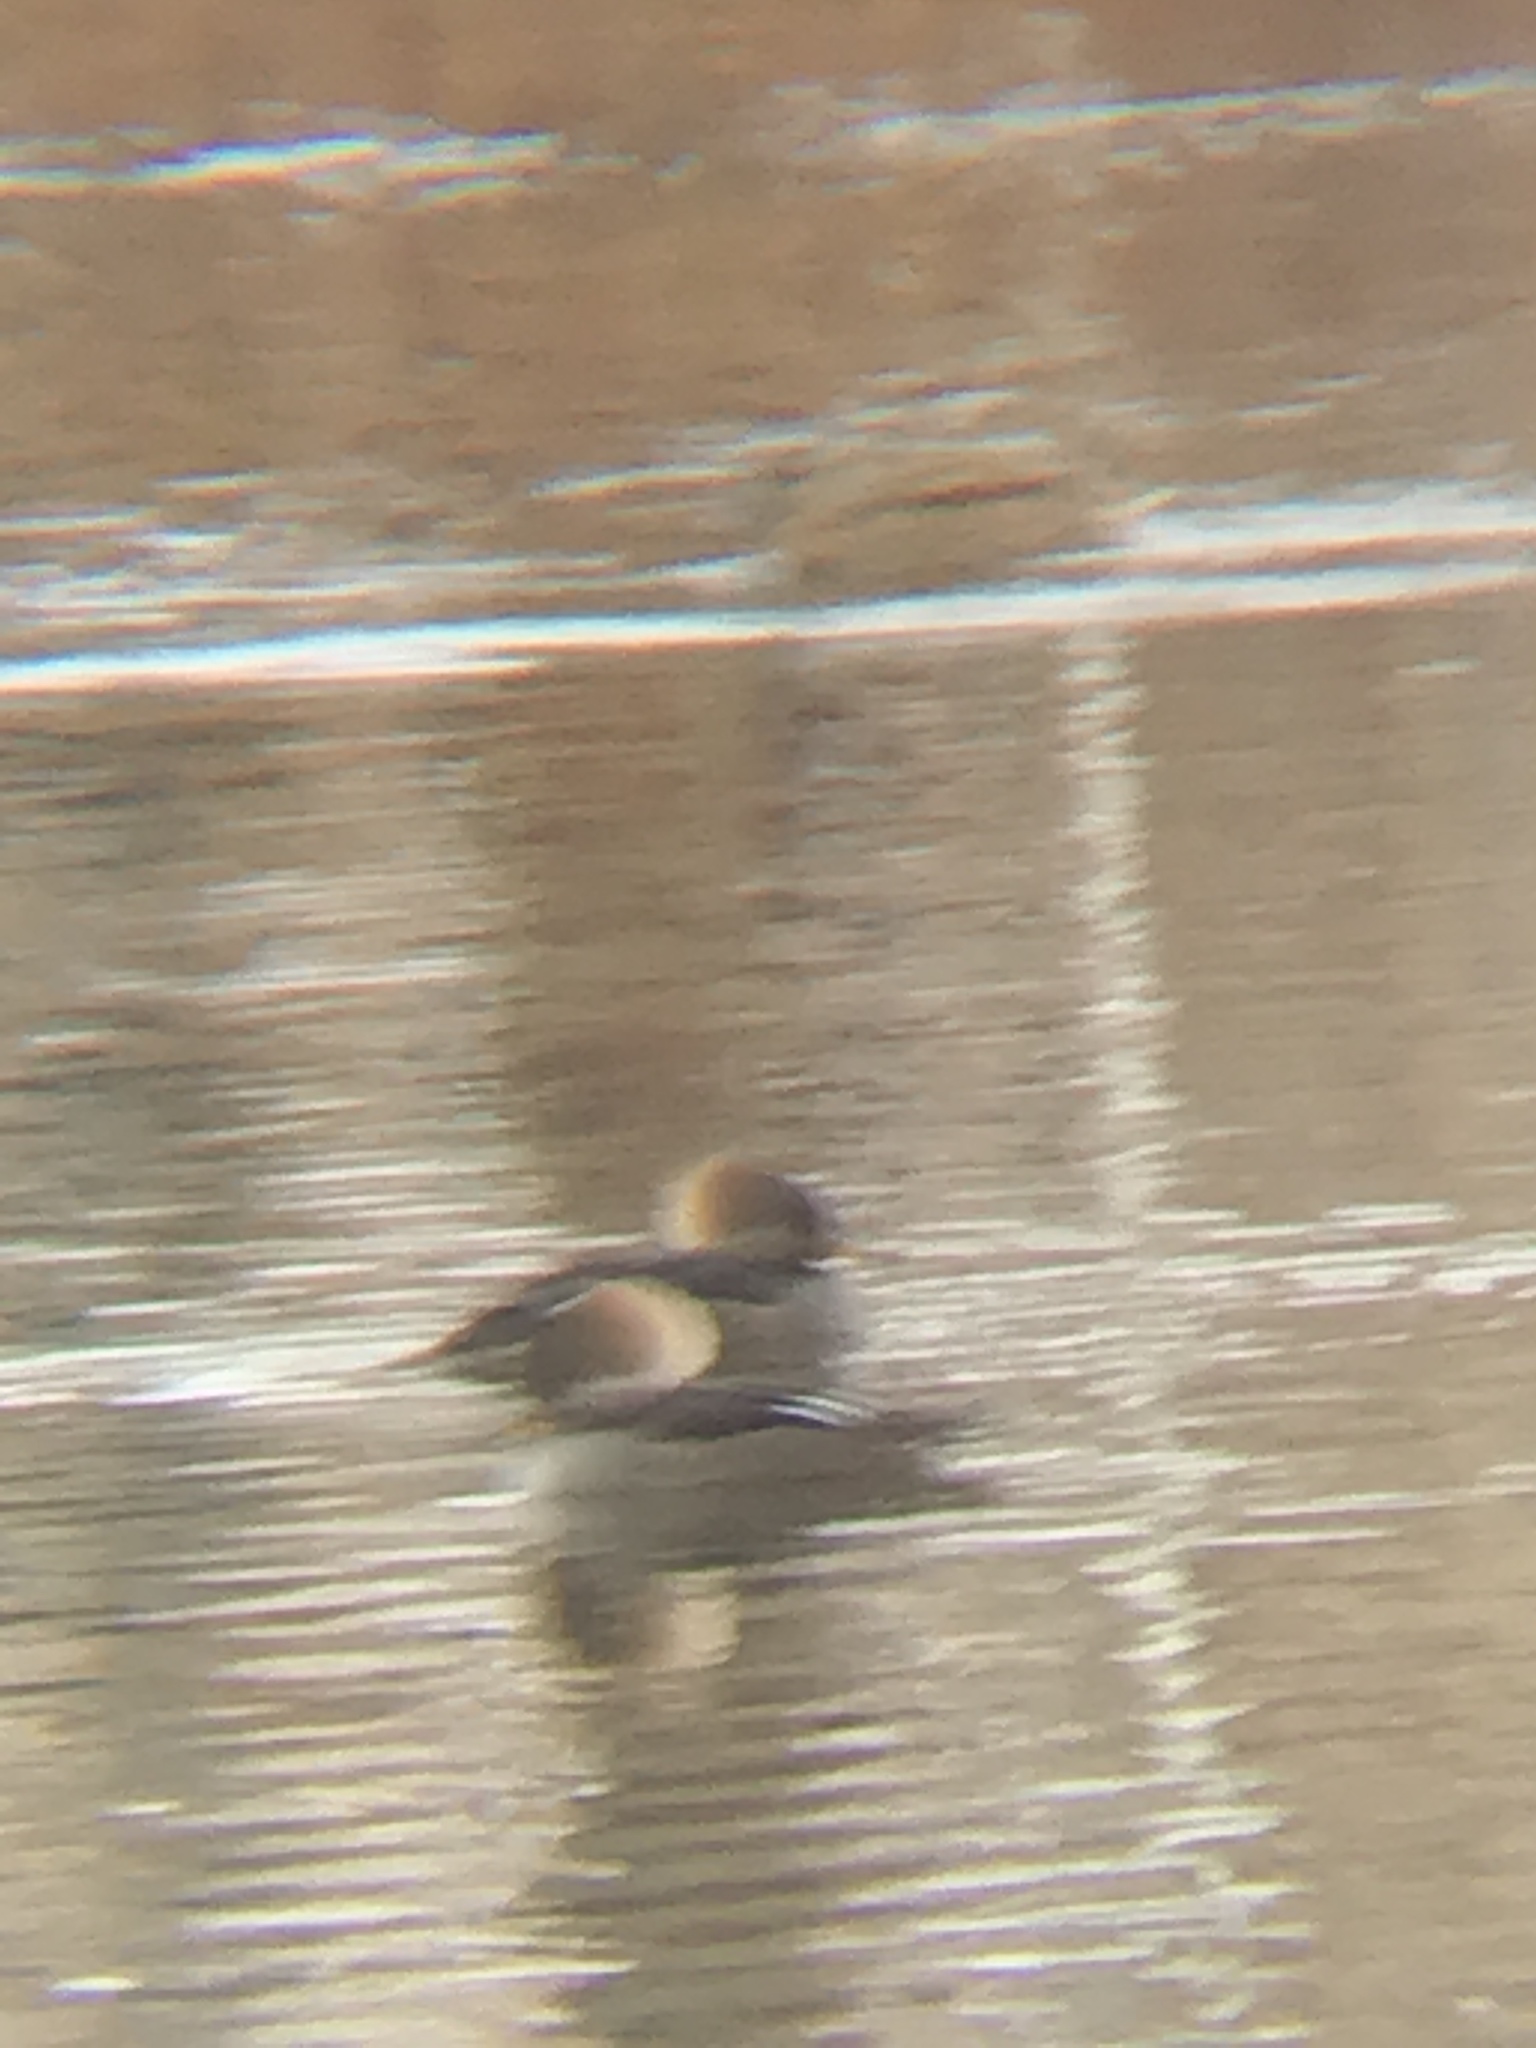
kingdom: Animalia
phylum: Chordata
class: Aves
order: Anseriformes
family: Anatidae
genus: Lophodytes
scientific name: Lophodytes cucullatus
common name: Hooded merganser
